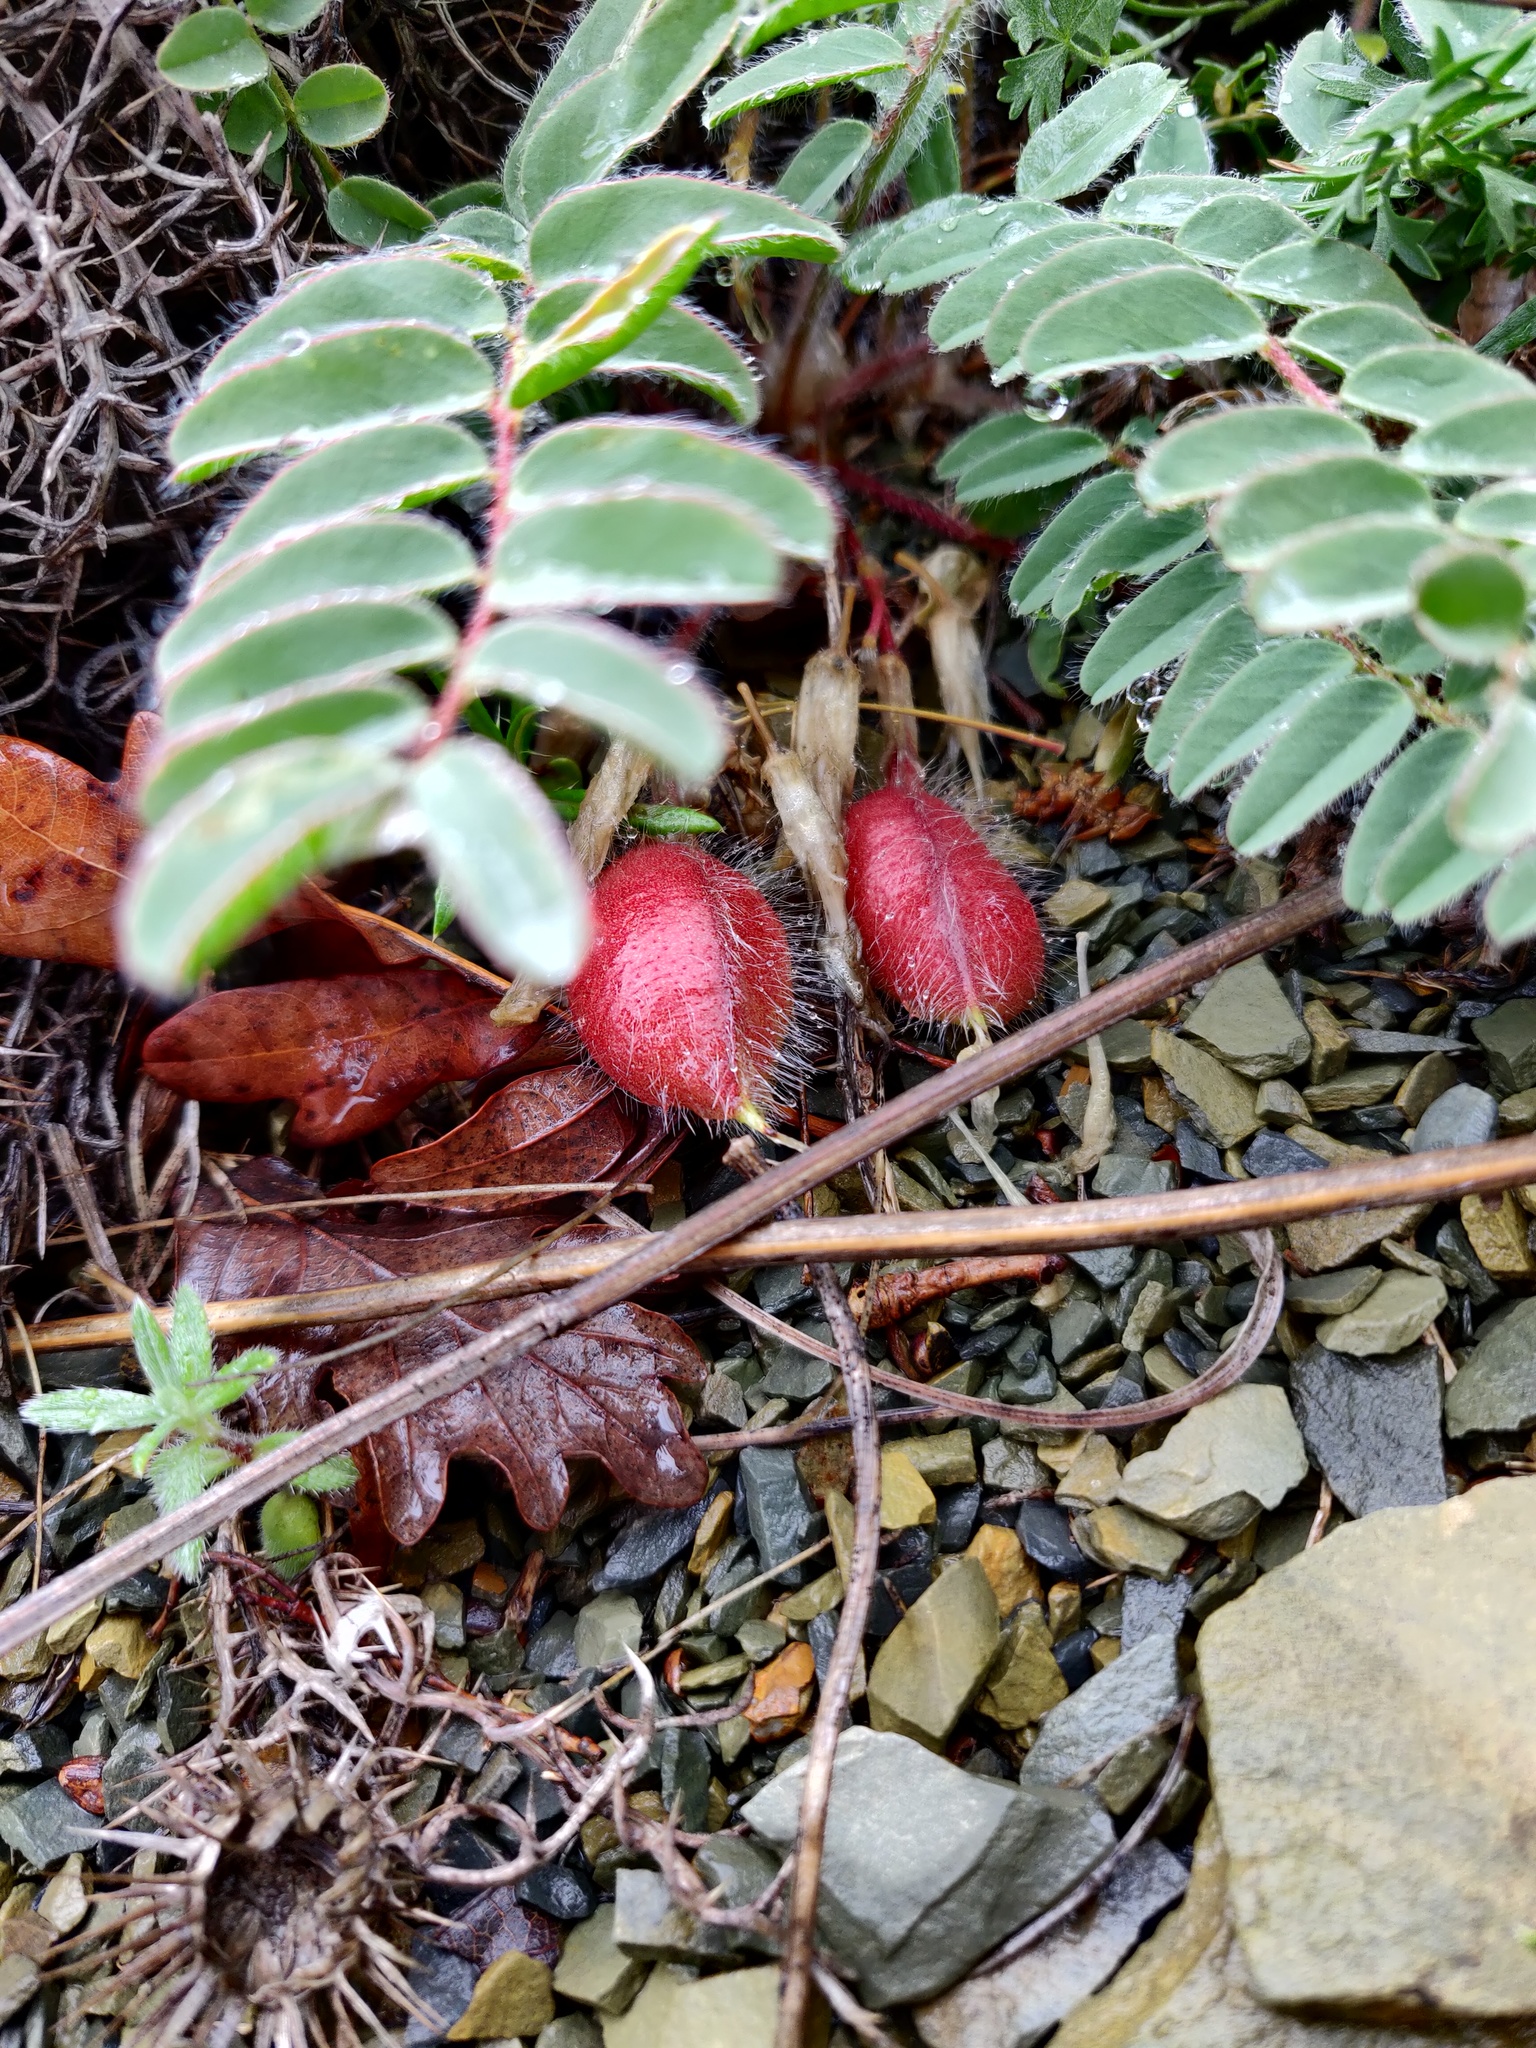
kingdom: Plantae
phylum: Tracheophyta
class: Magnoliopsida
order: Fabales
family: Fabaceae
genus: Astragalus
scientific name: Astragalus utriger
